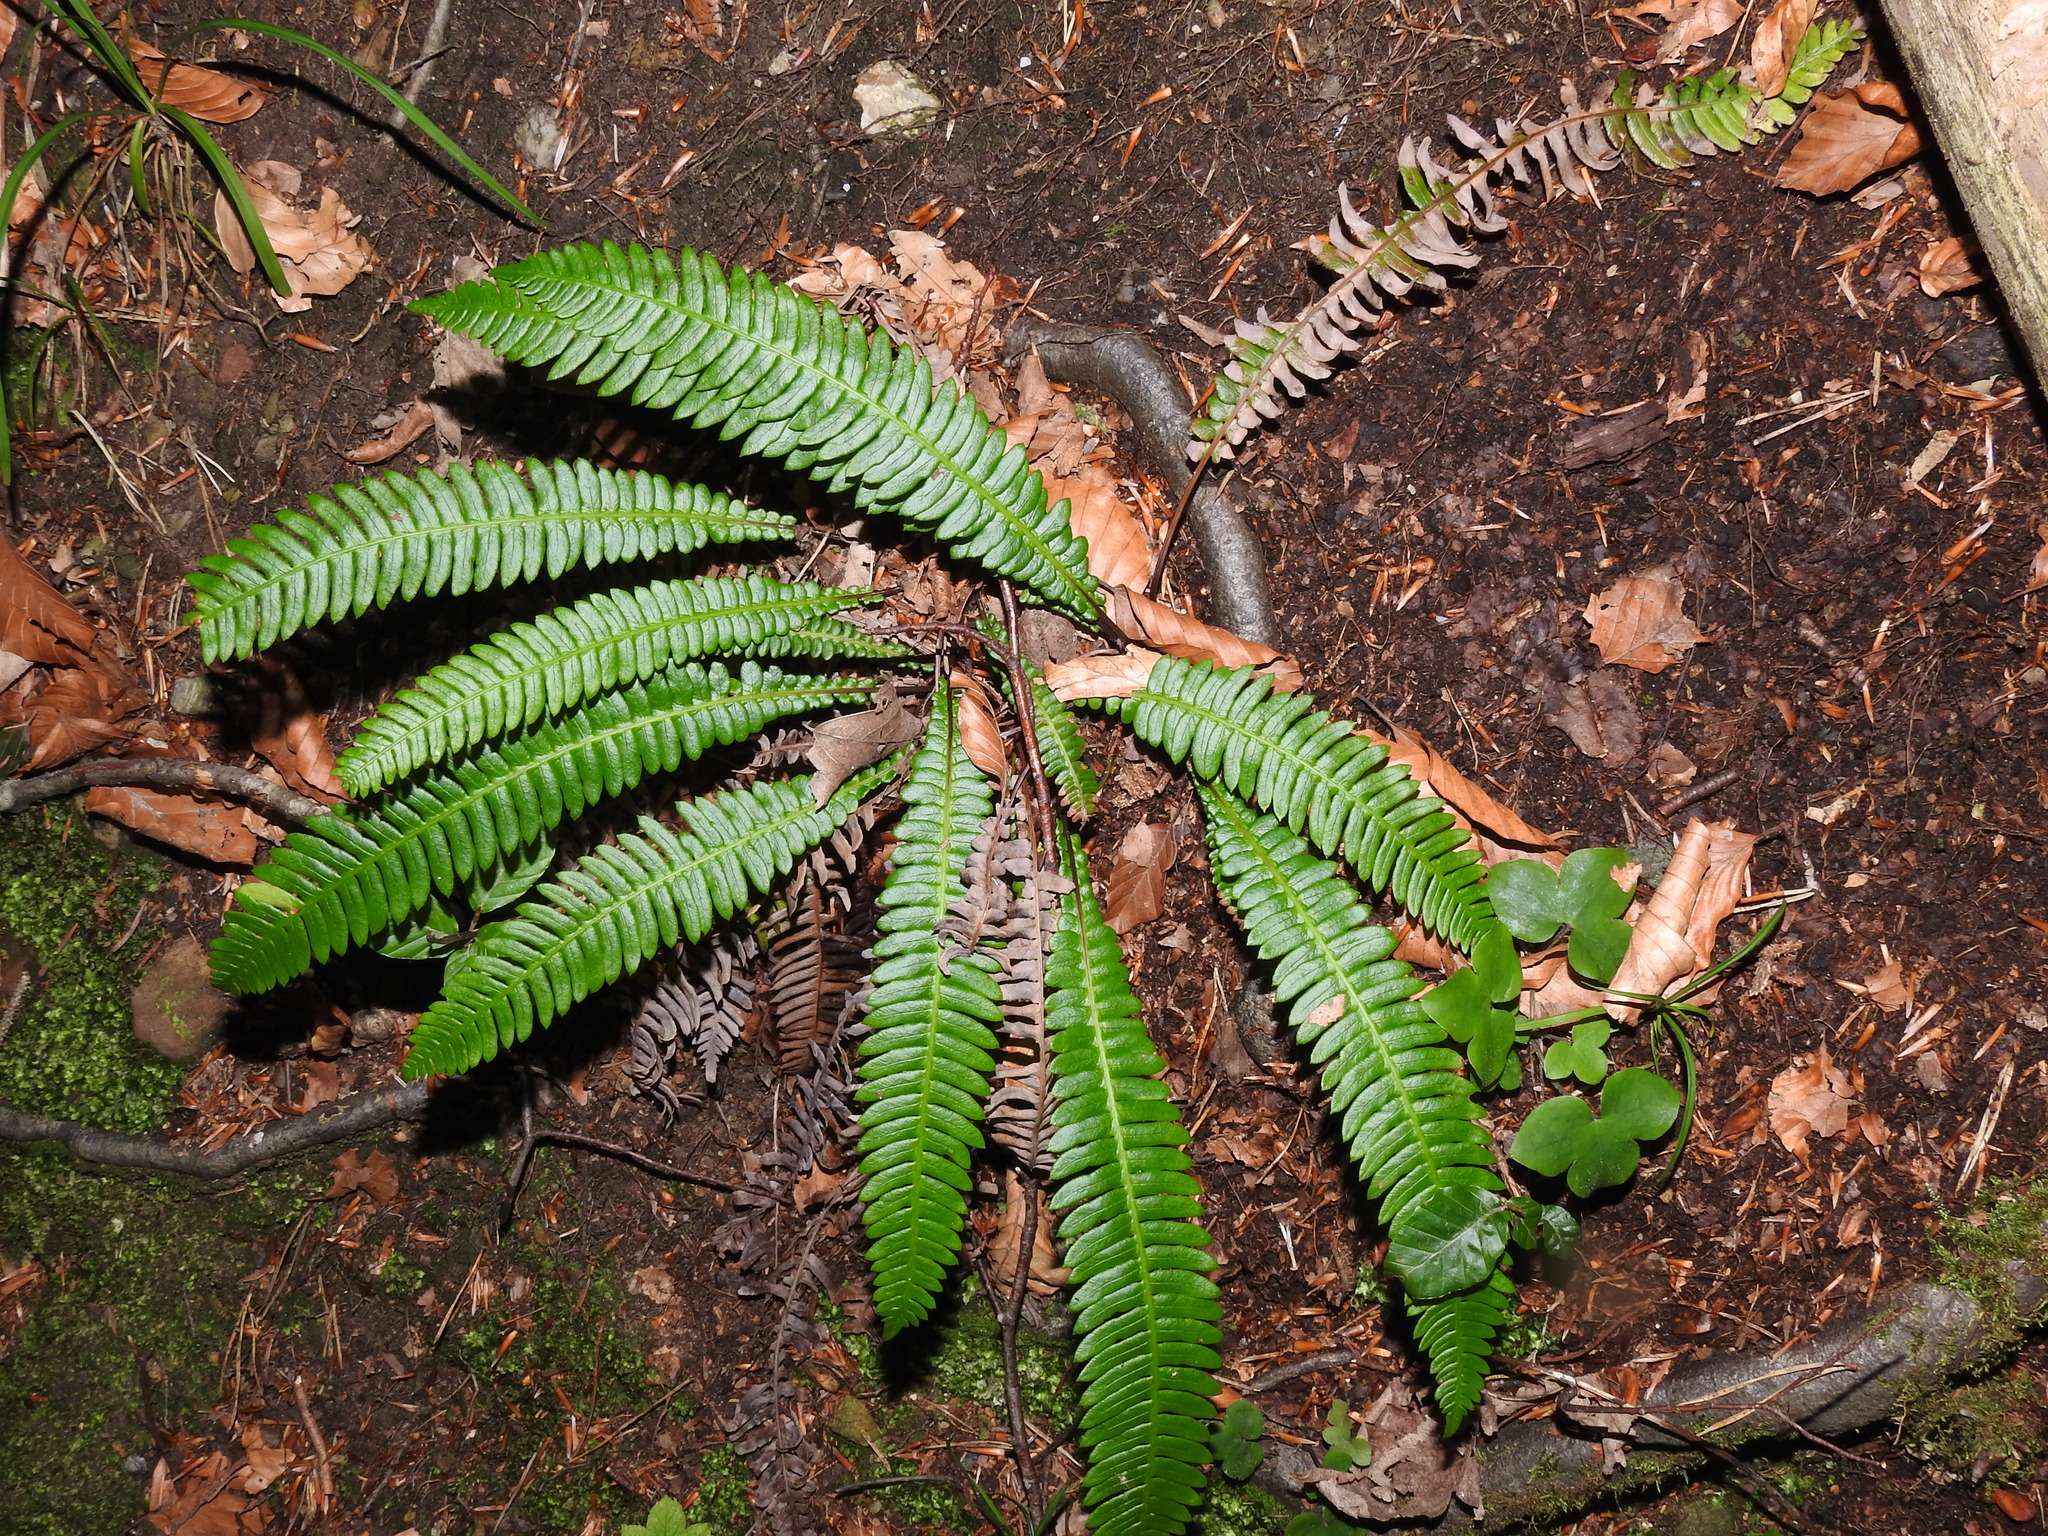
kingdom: Plantae
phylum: Tracheophyta
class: Polypodiopsida
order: Polypodiales
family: Blechnaceae
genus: Struthiopteris
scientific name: Struthiopteris spicant
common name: Deer fern
